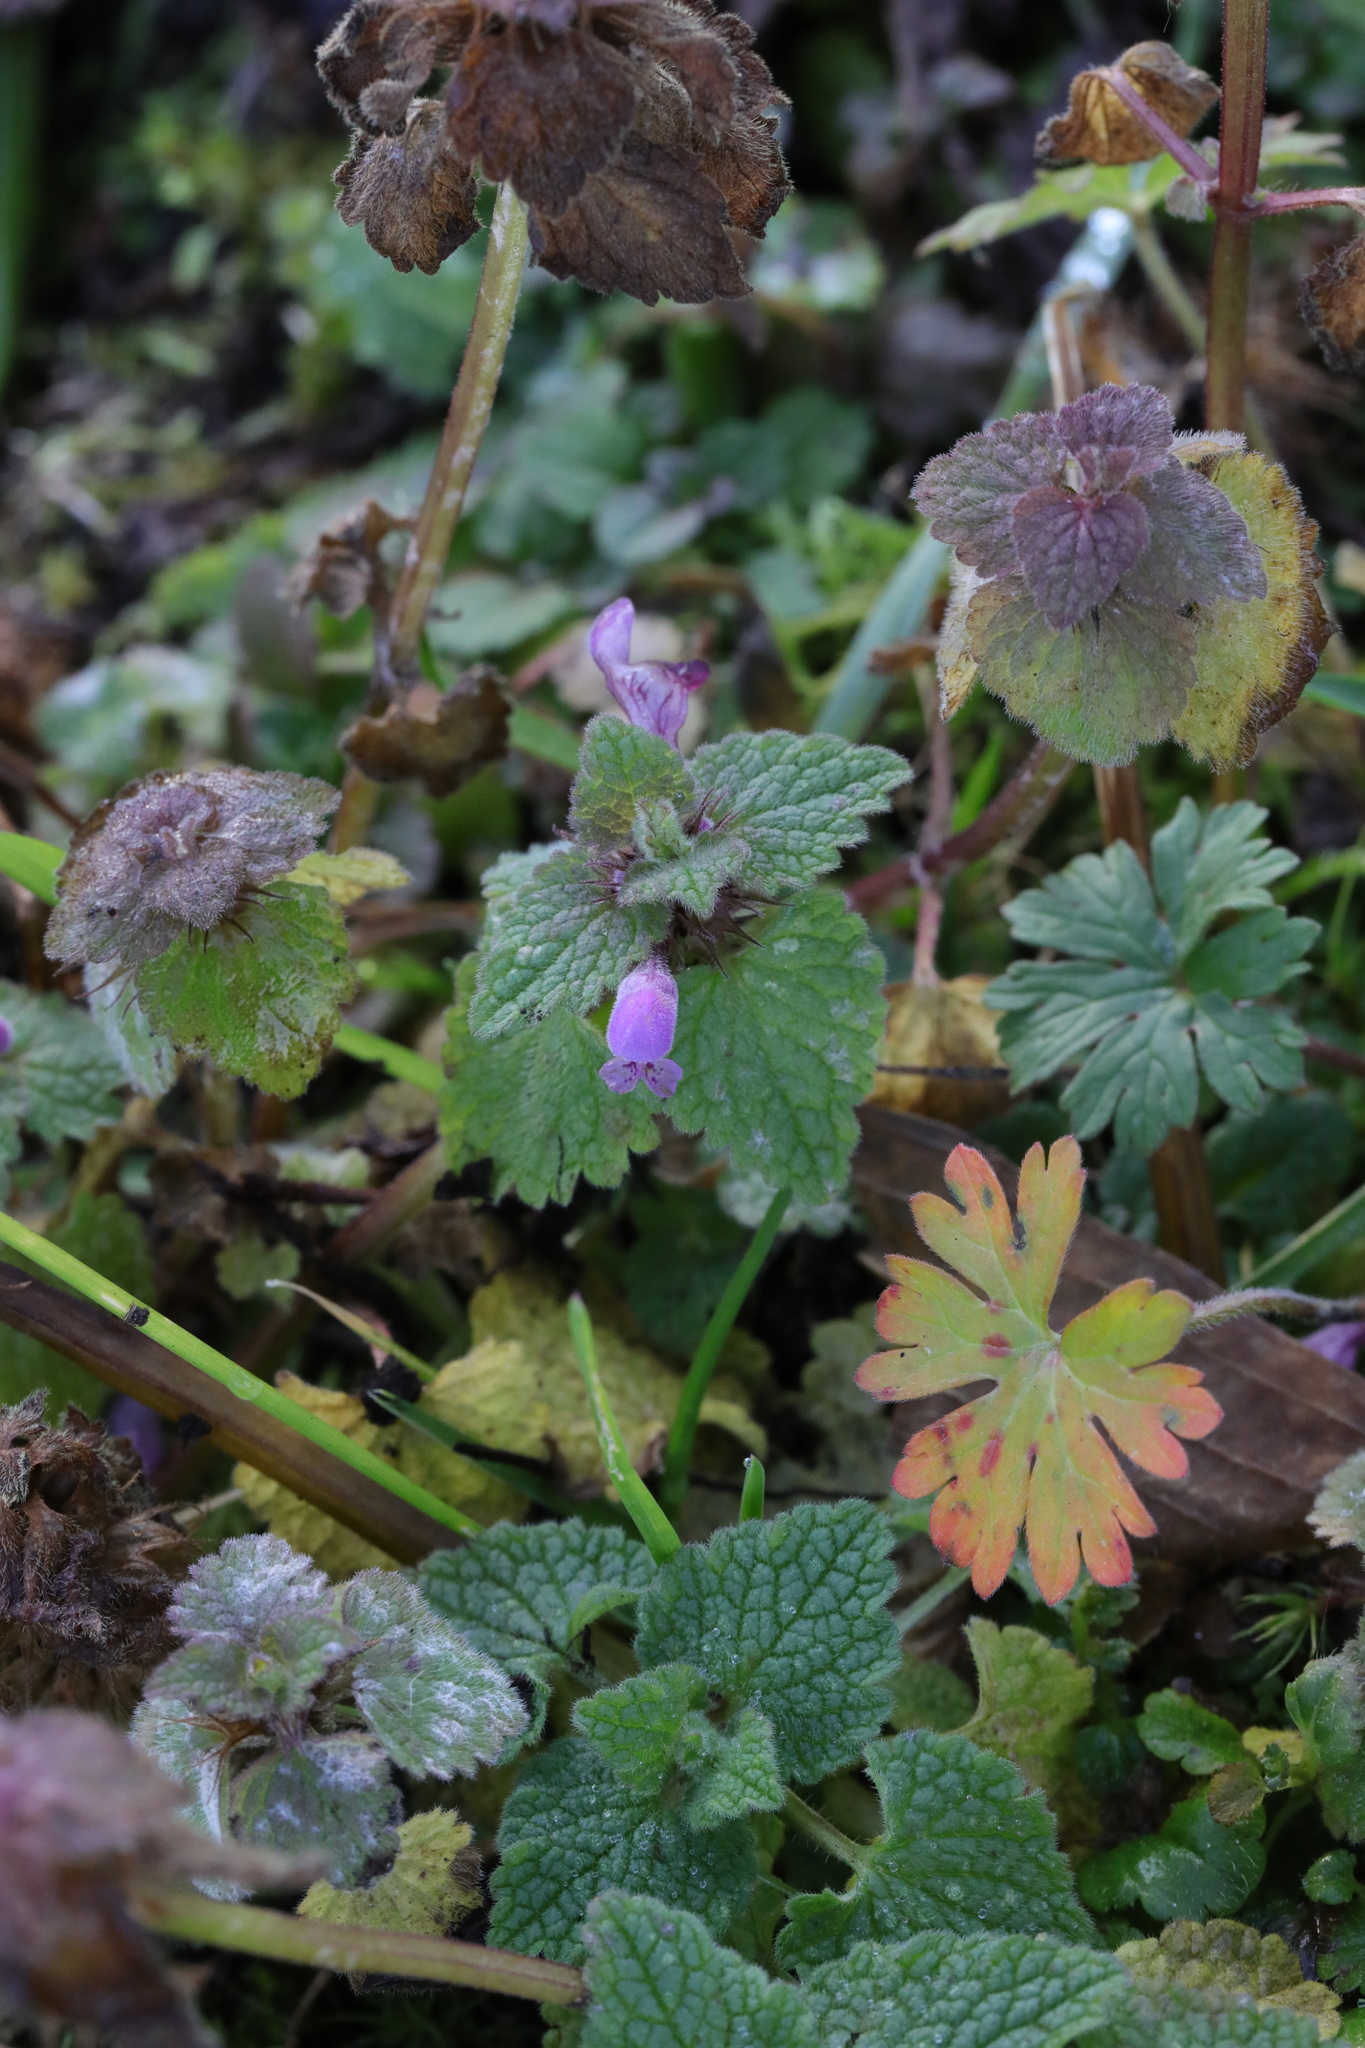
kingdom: Plantae
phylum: Tracheophyta
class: Magnoliopsida
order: Lamiales
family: Lamiaceae
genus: Lamium
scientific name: Lamium purpureum
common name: Red dead-nettle
